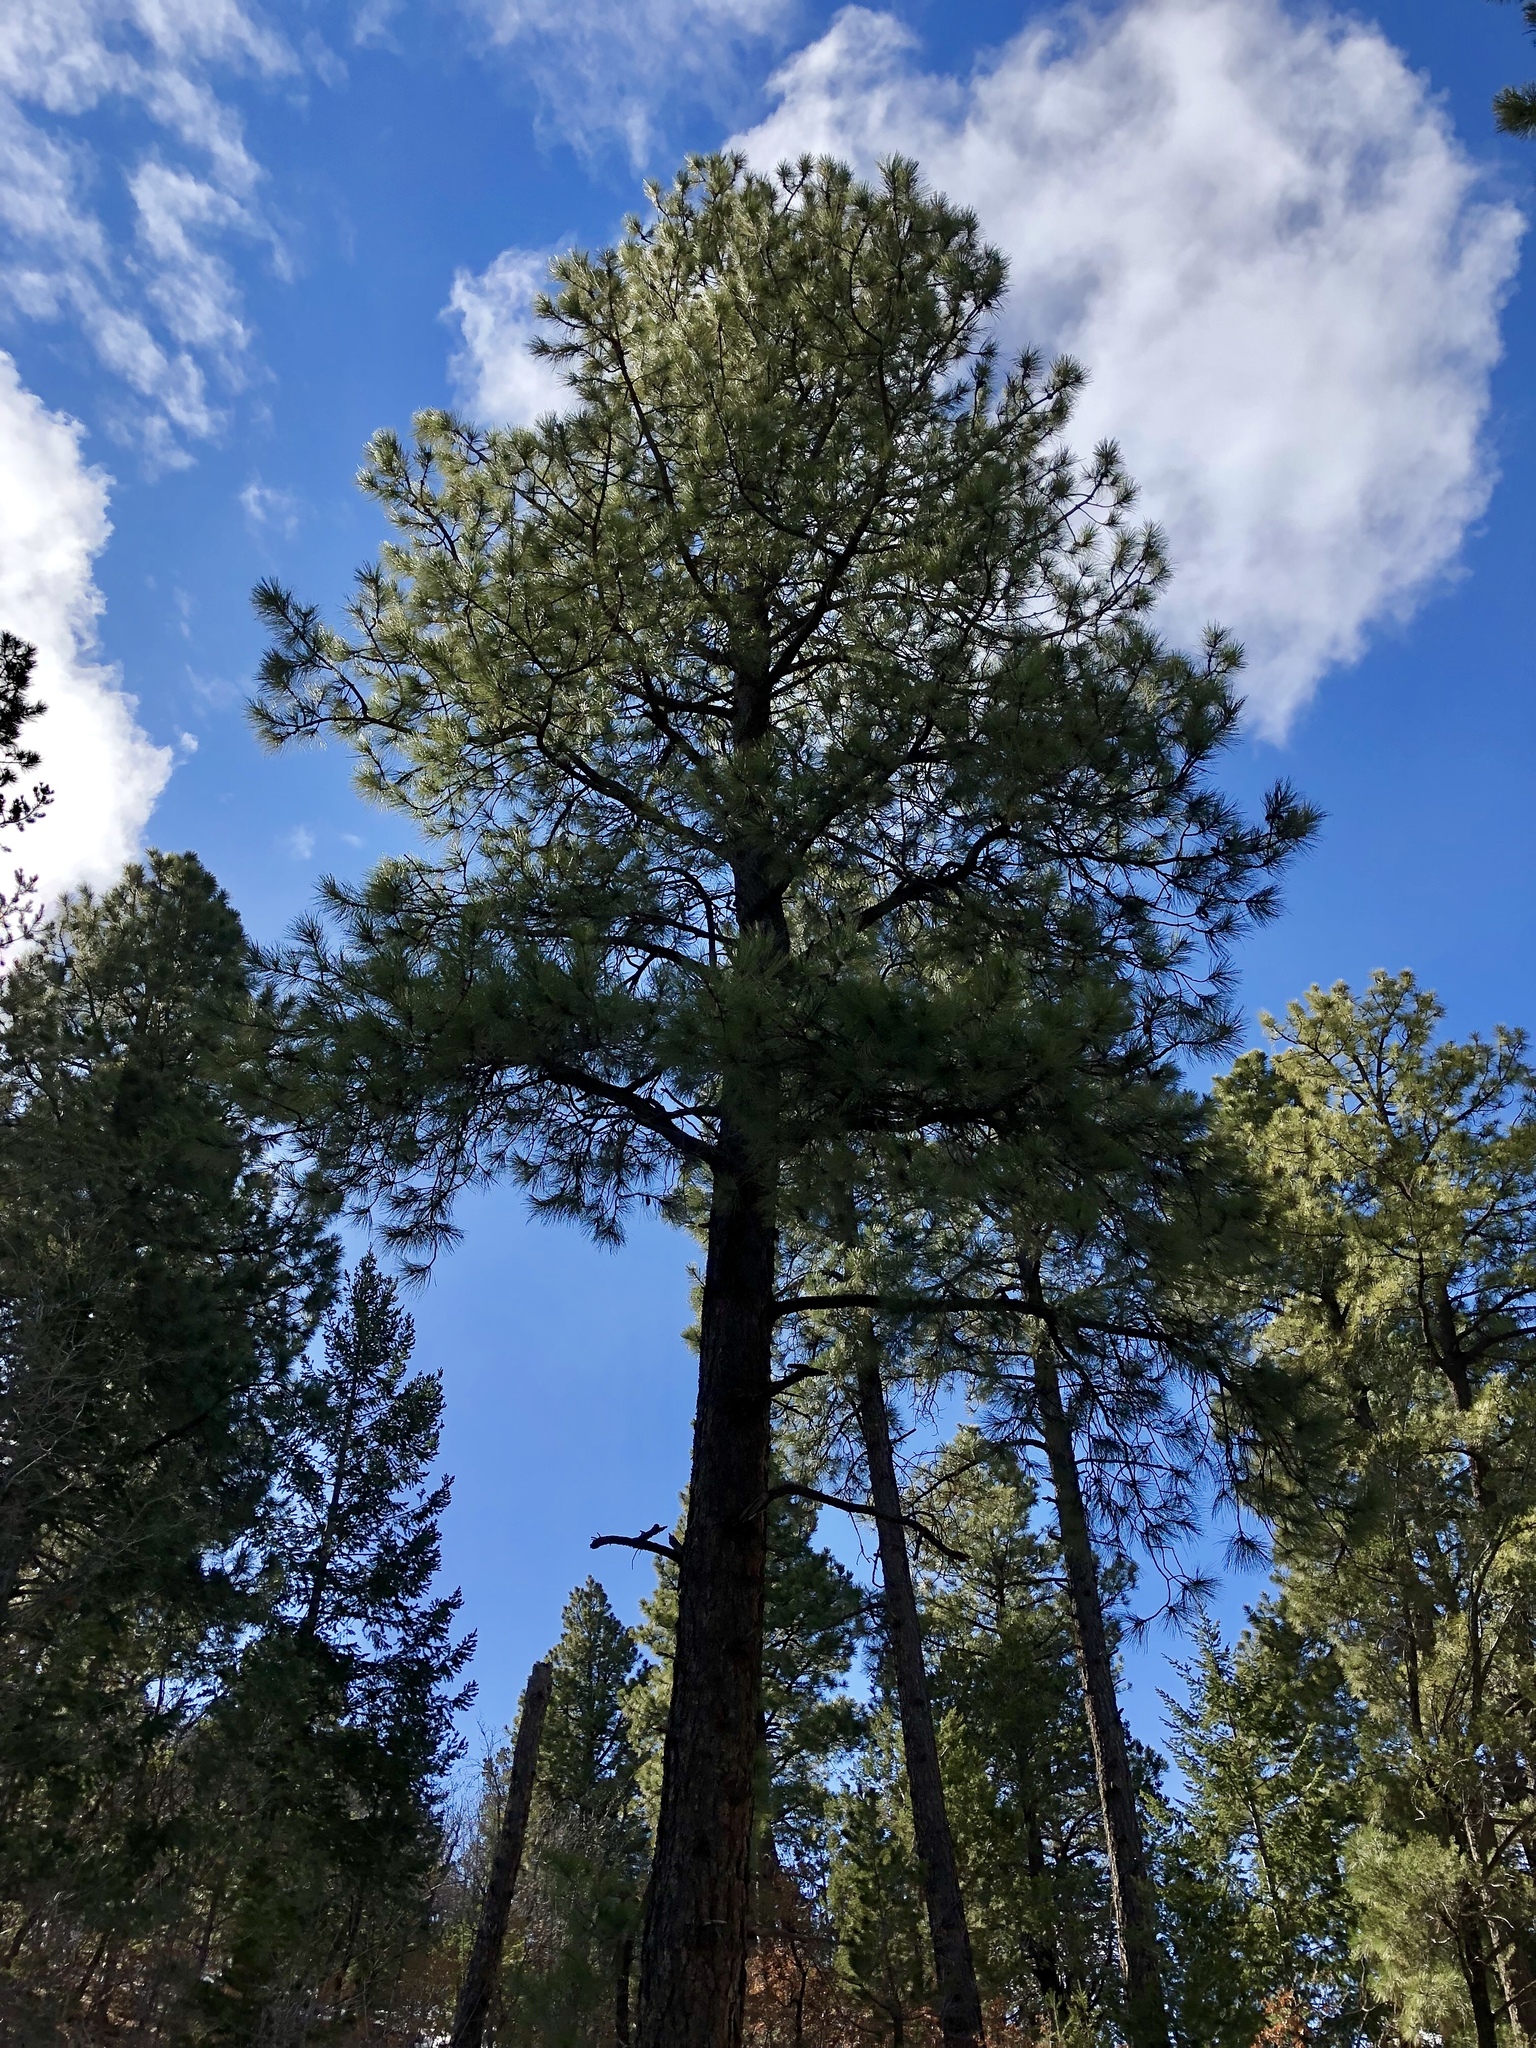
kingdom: Plantae
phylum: Tracheophyta
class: Pinopsida
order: Pinales
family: Pinaceae
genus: Pinus
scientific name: Pinus ponderosa
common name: Western yellow-pine
